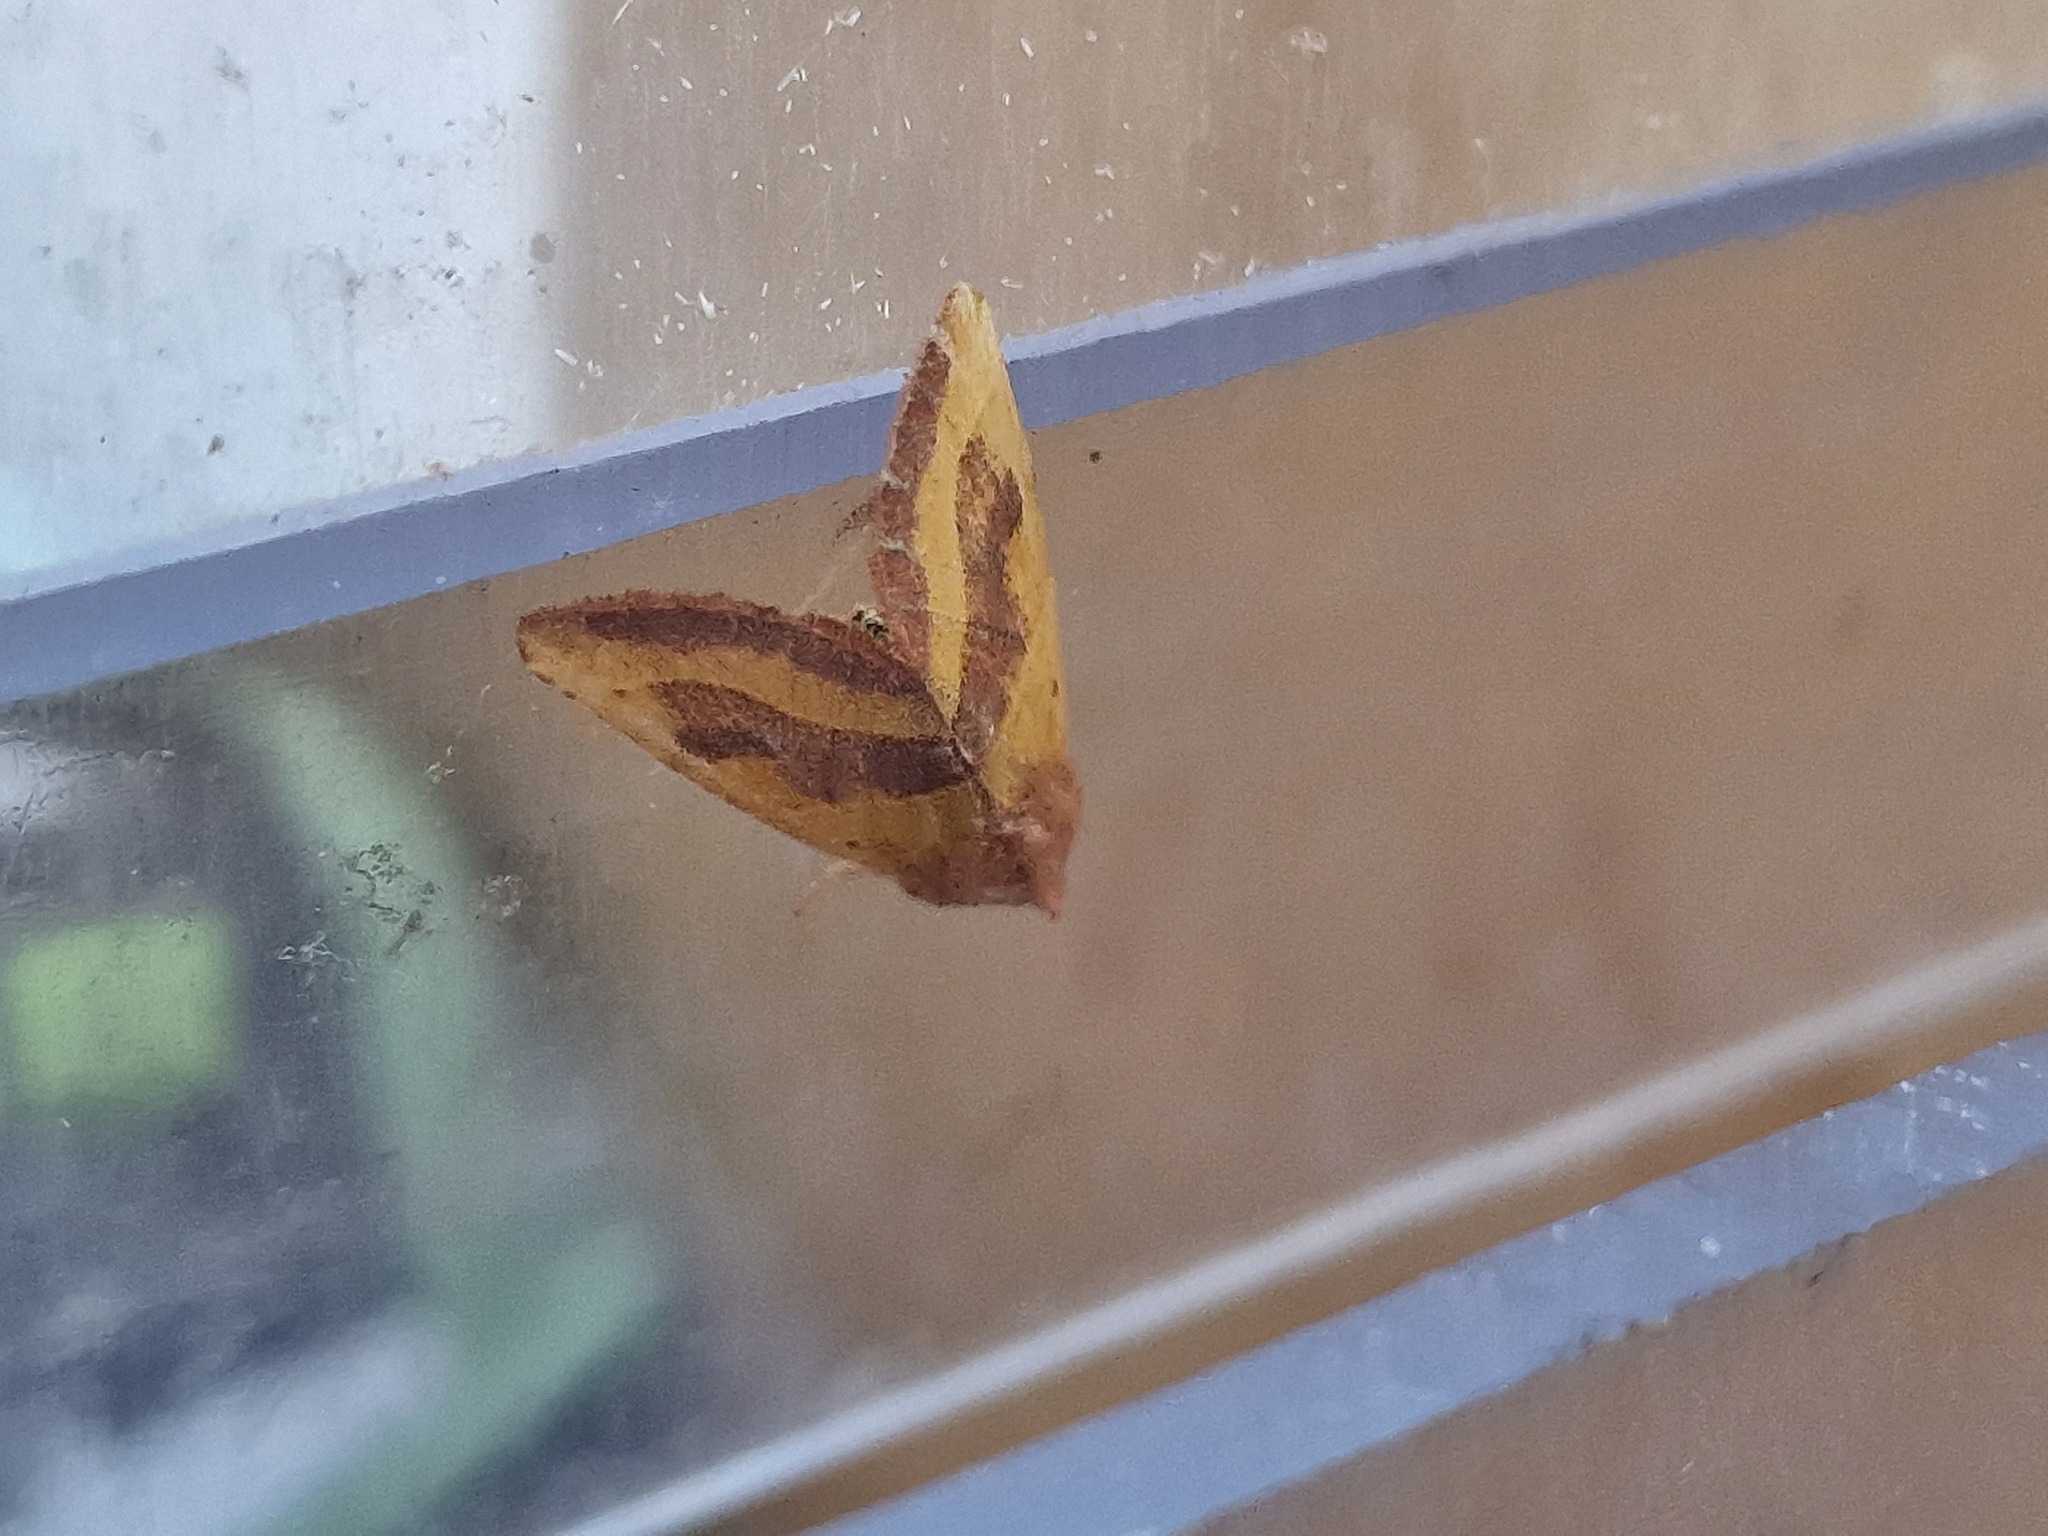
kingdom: Animalia
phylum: Arthropoda
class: Insecta
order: Lepidoptera
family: Noctuidae
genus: Atethmia
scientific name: Atethmia centrago
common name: Centre-barred sallow
